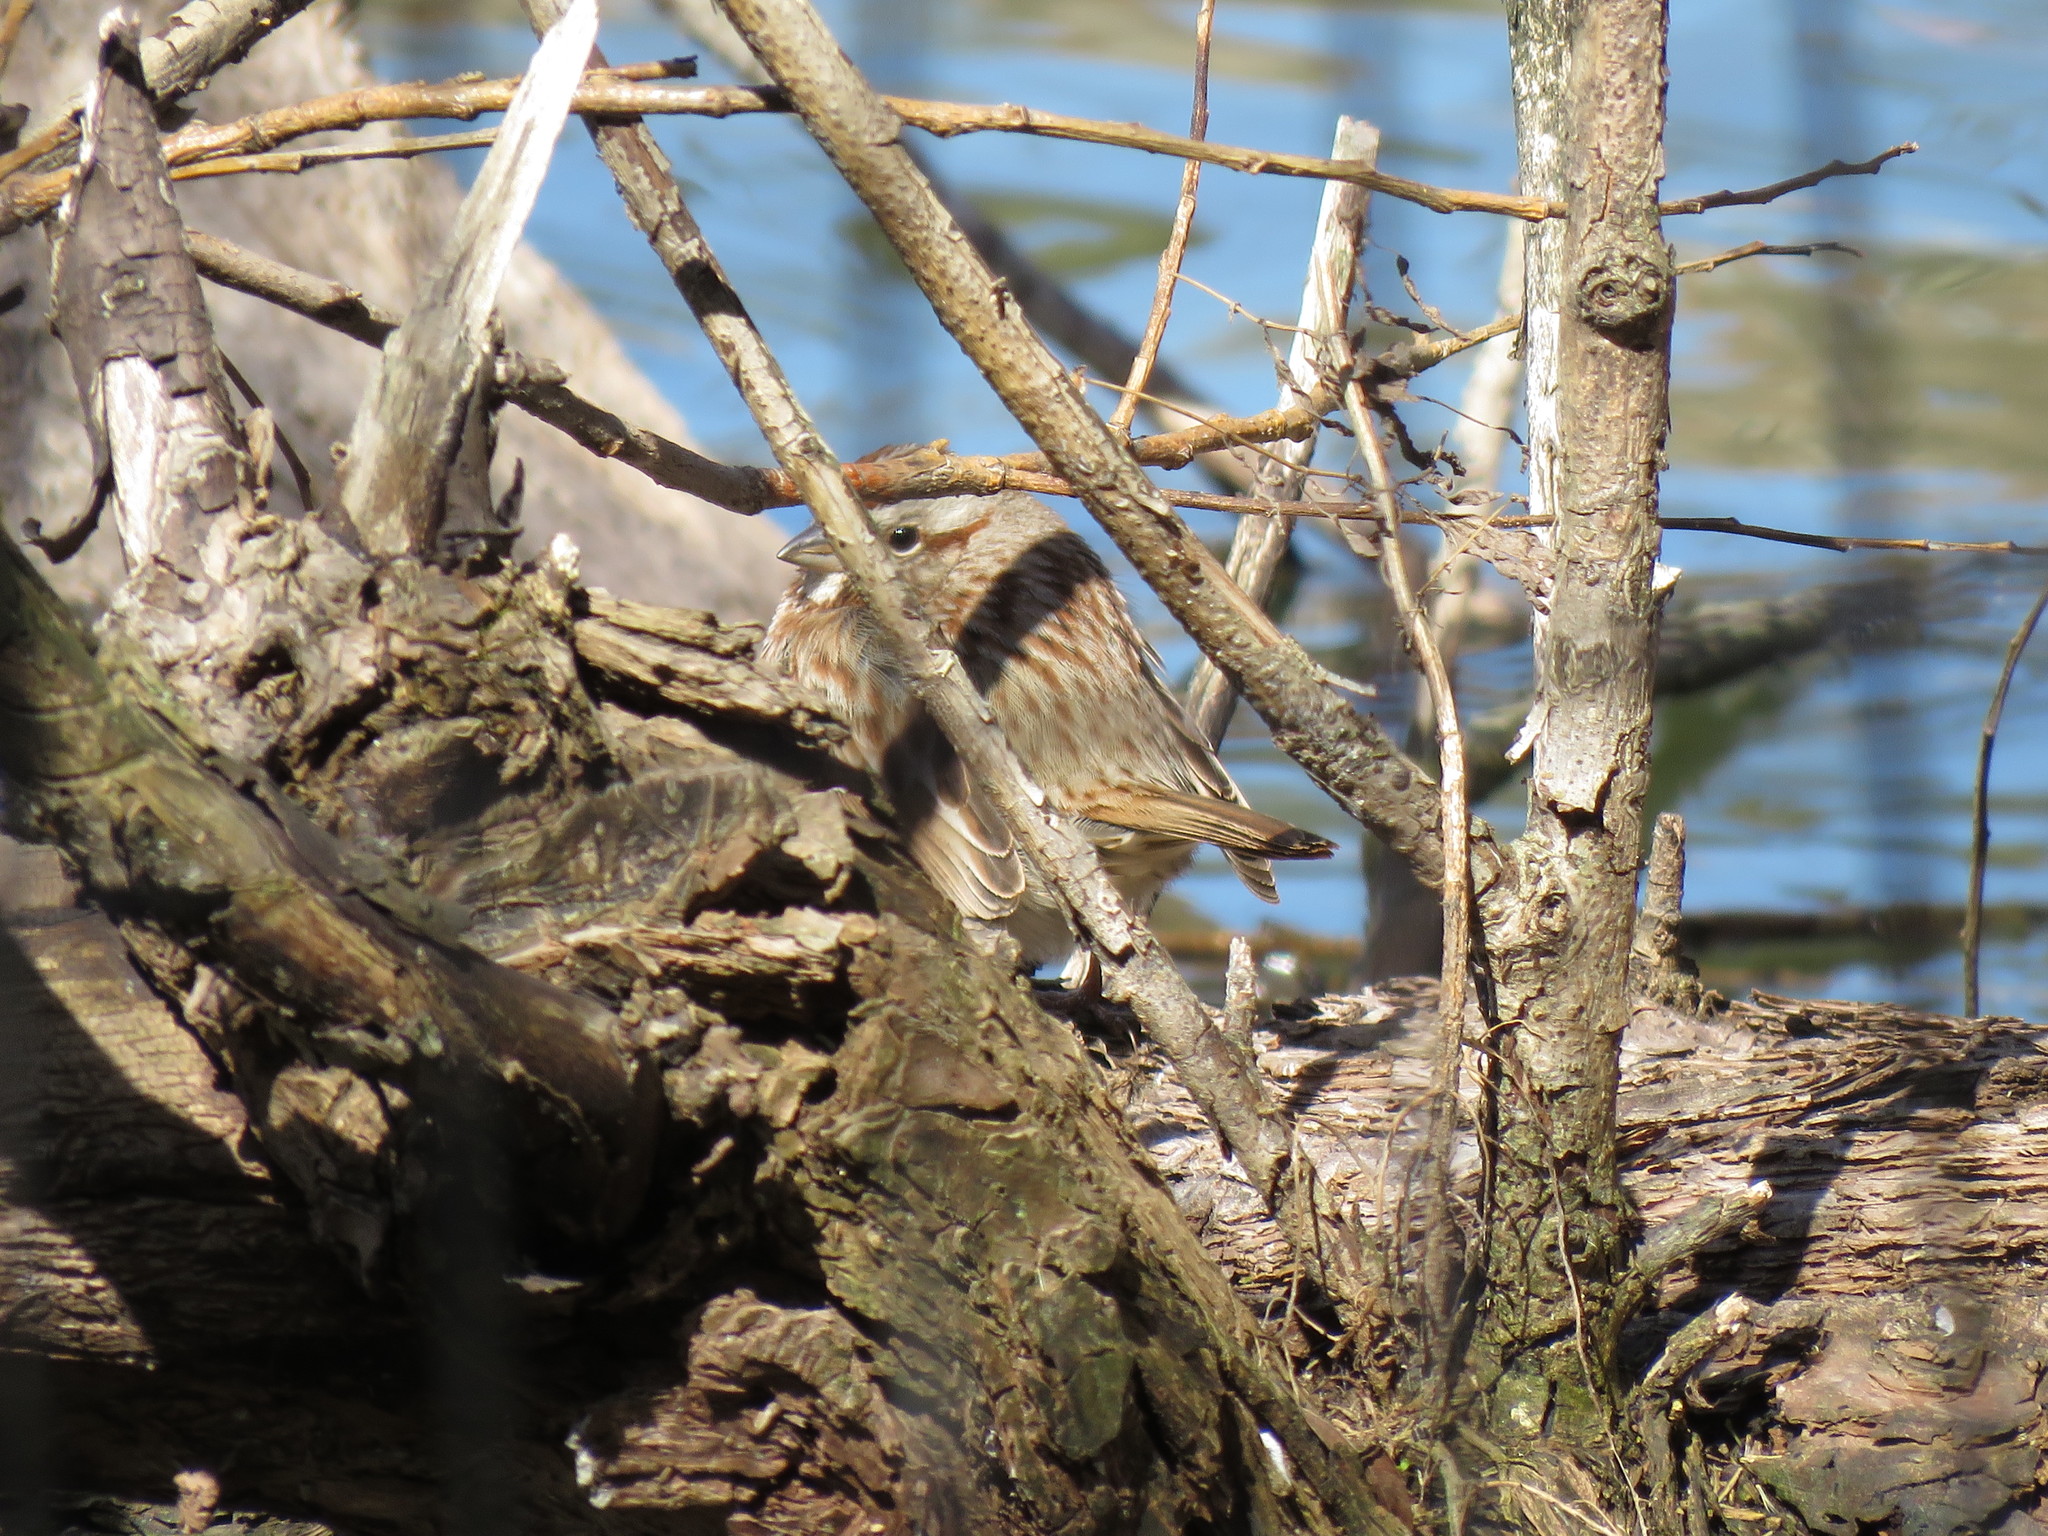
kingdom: Animalia
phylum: Chordata
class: Aves
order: Passeriformes
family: Passerellidae
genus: Melospiza
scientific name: Melospiza melodia
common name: Song sparrow
